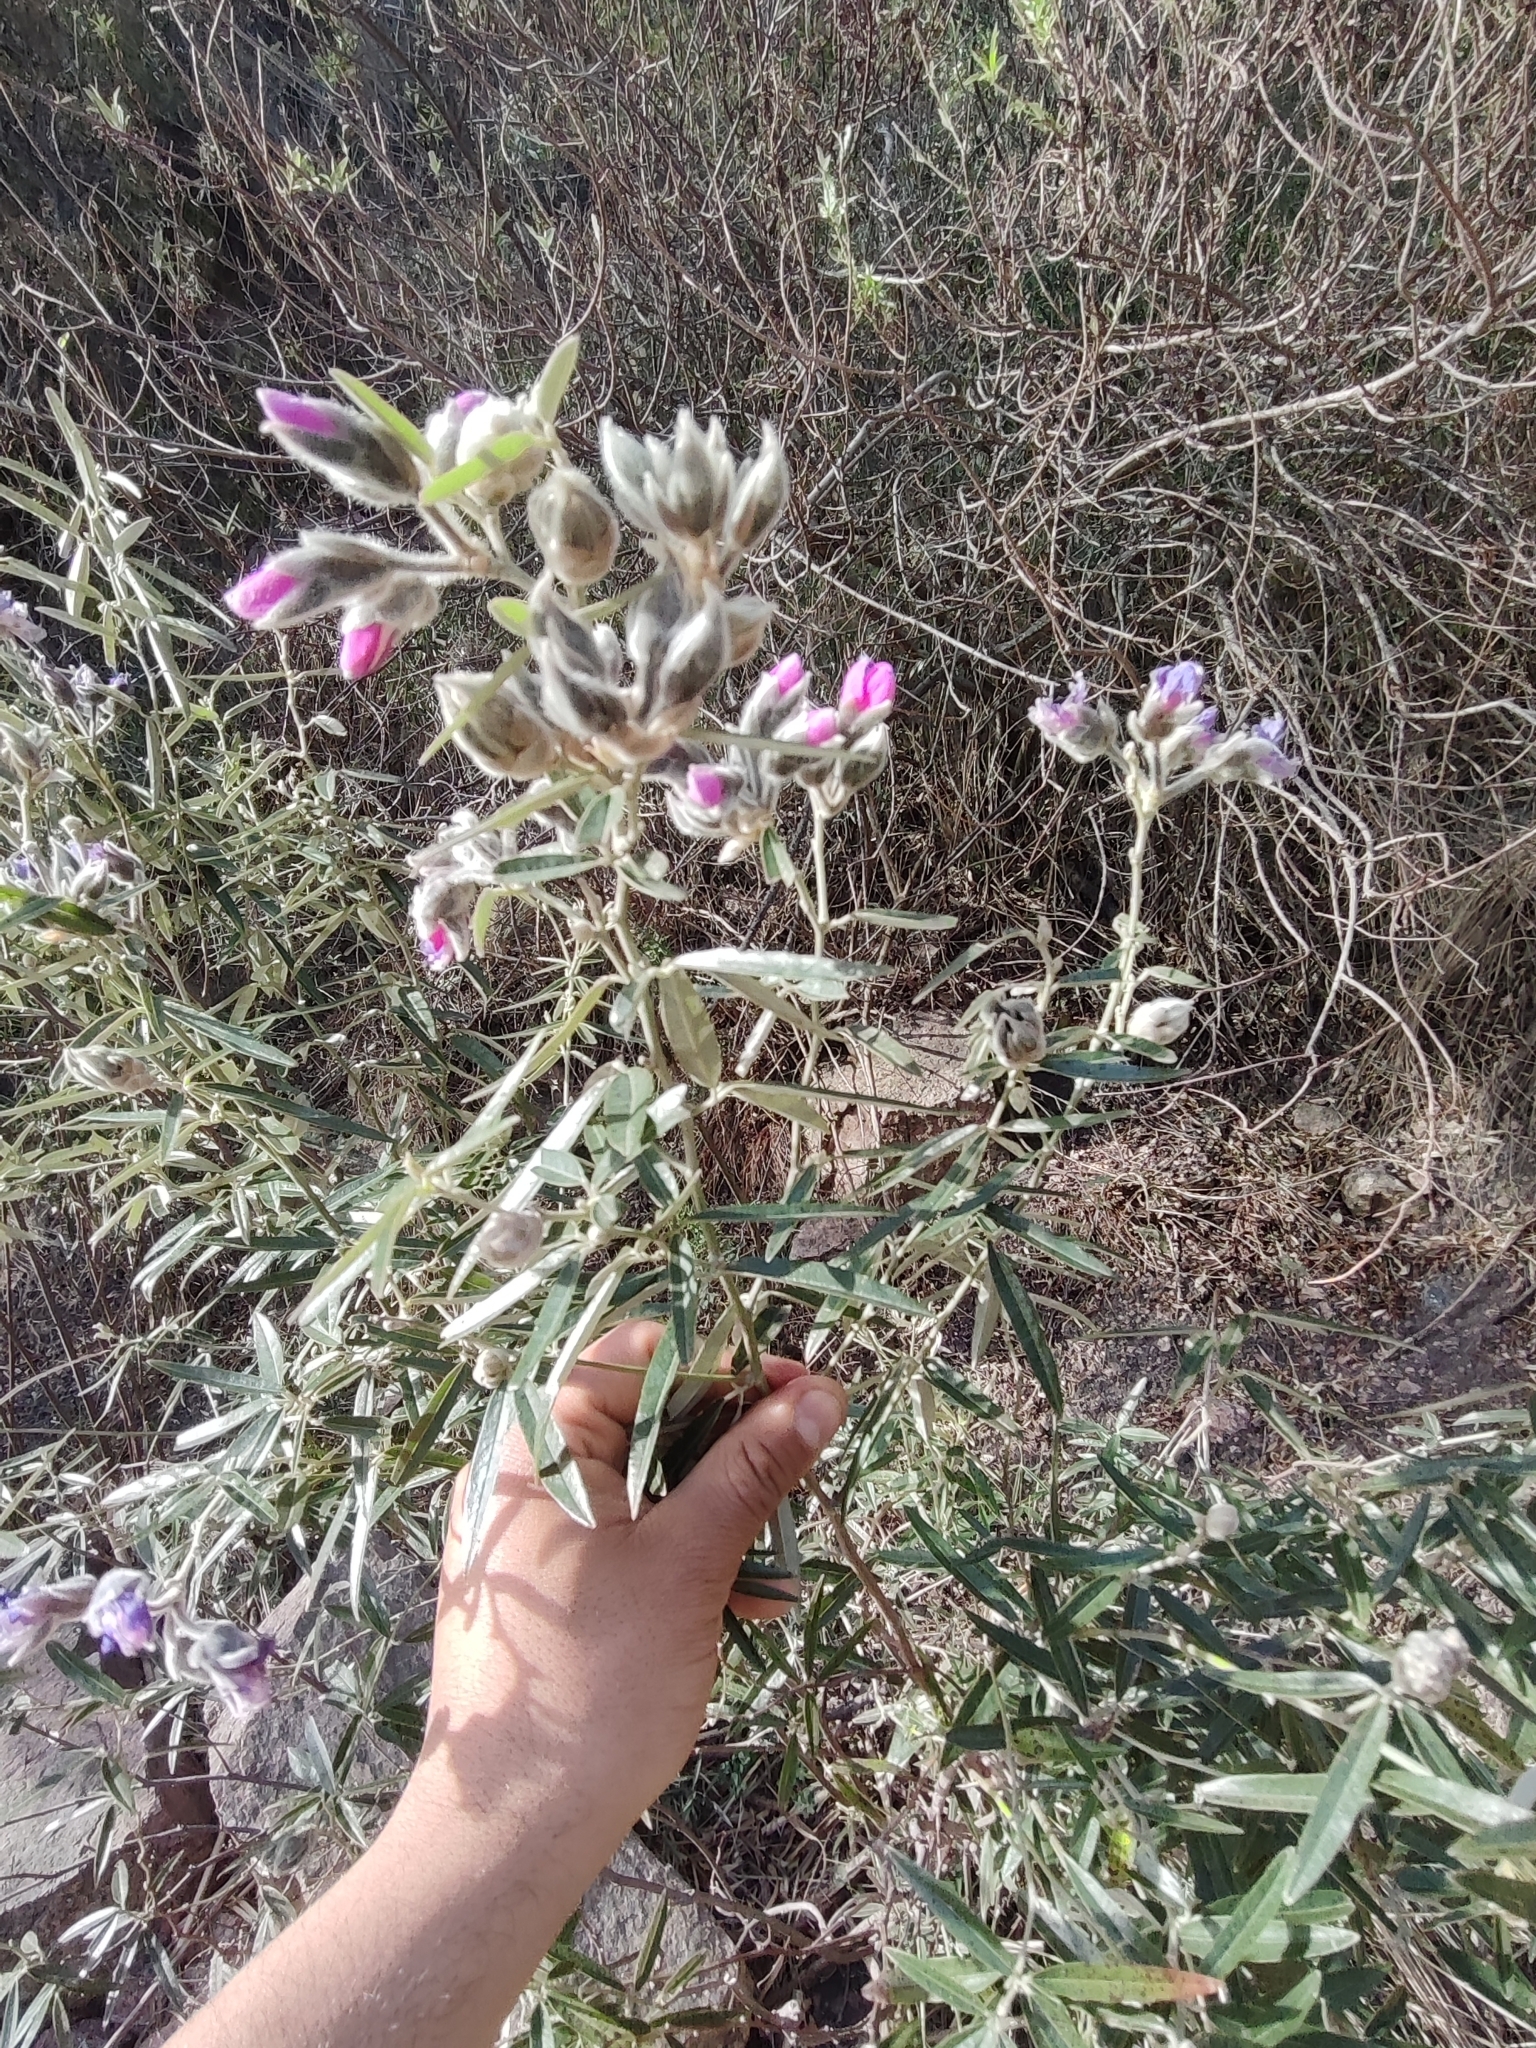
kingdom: Plantae
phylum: Tracheophyta
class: Magnoliopsida
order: Fabales
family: Fabaceae
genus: Nanogalactia
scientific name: Nanogalactia heterophylla
